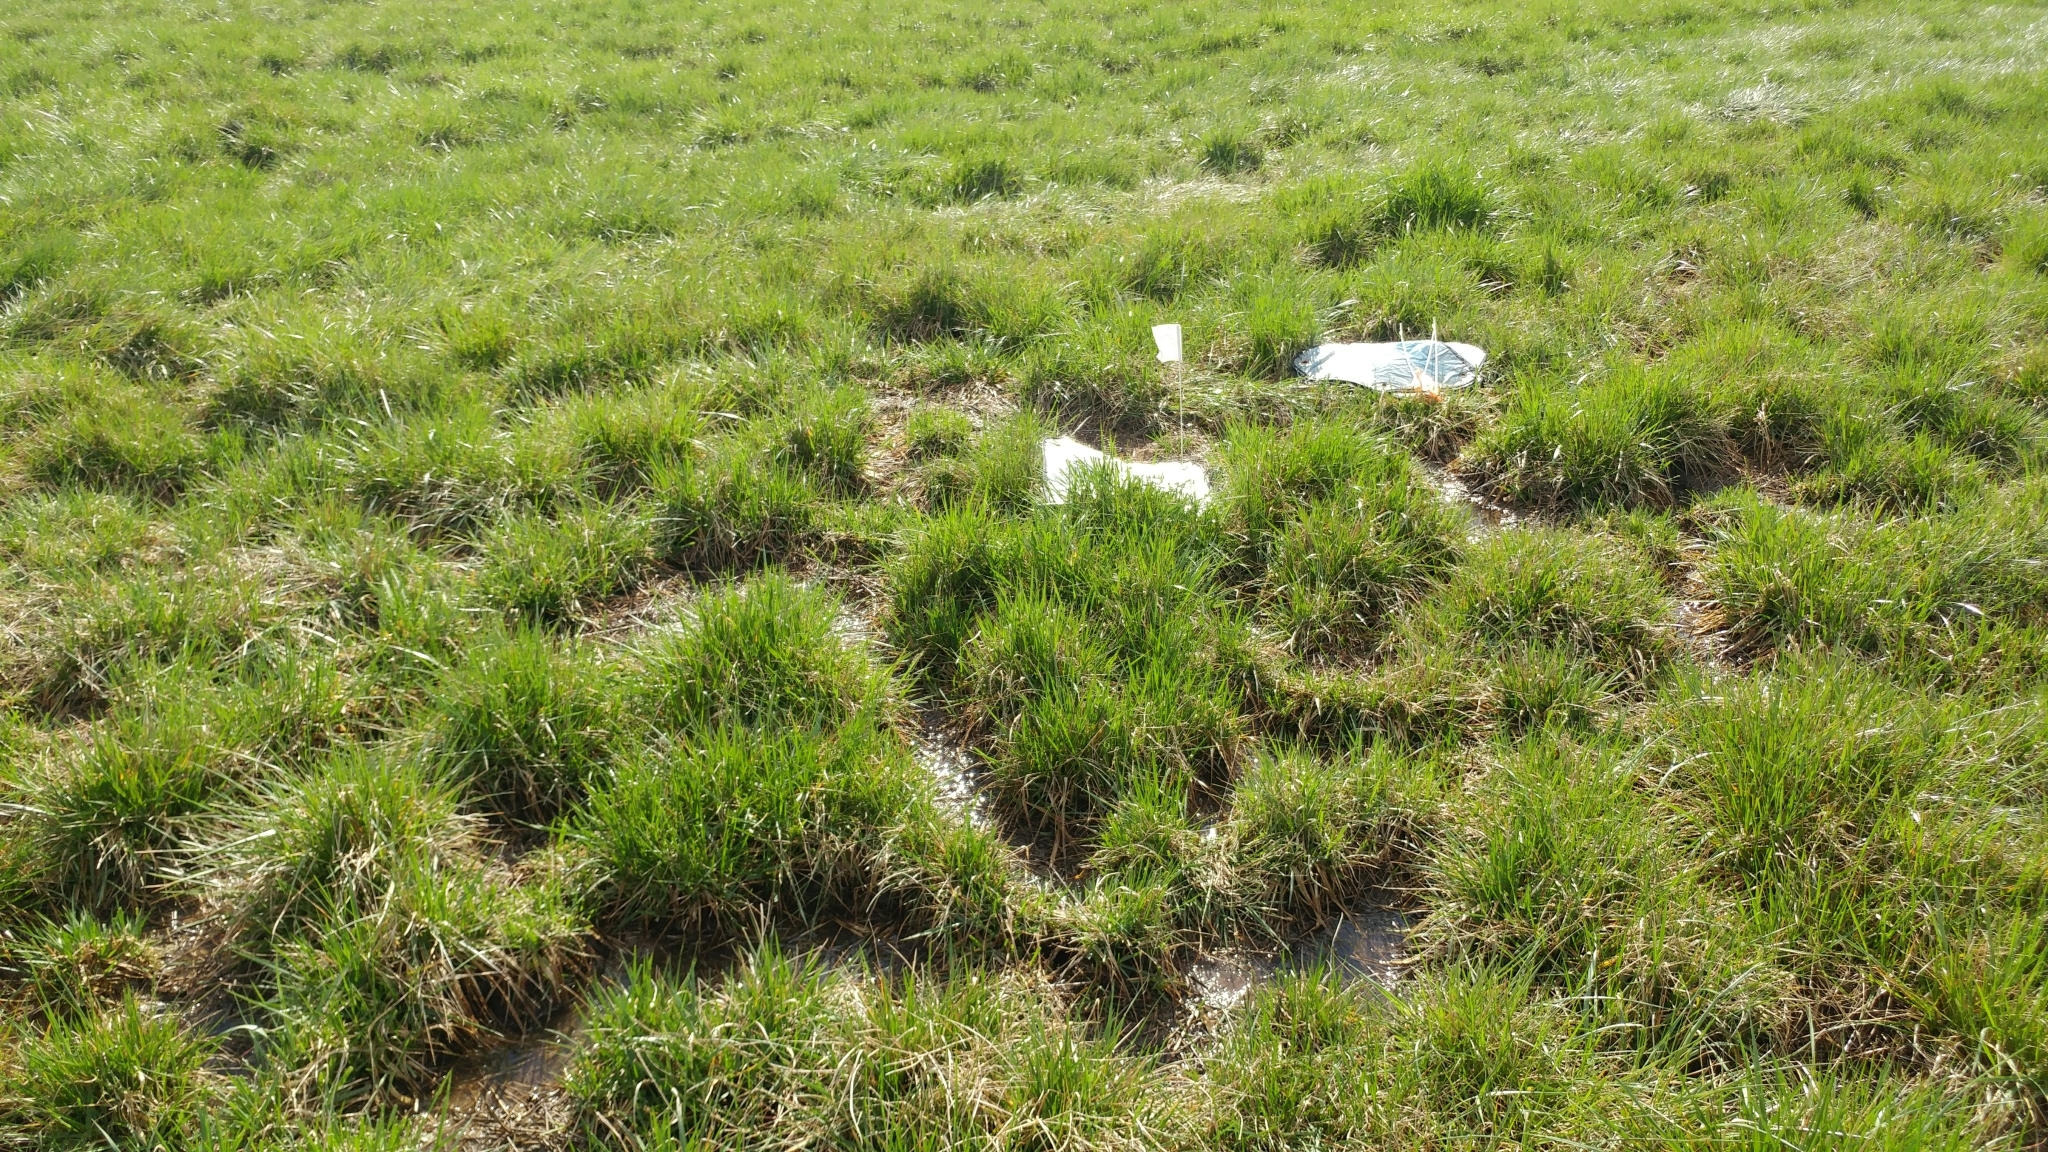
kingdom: Plantae
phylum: Tracheophyta
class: Liliopsida
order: Poales
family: Poaceae
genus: Lolium
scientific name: Lolium arundinaceum
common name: Reed fescue
